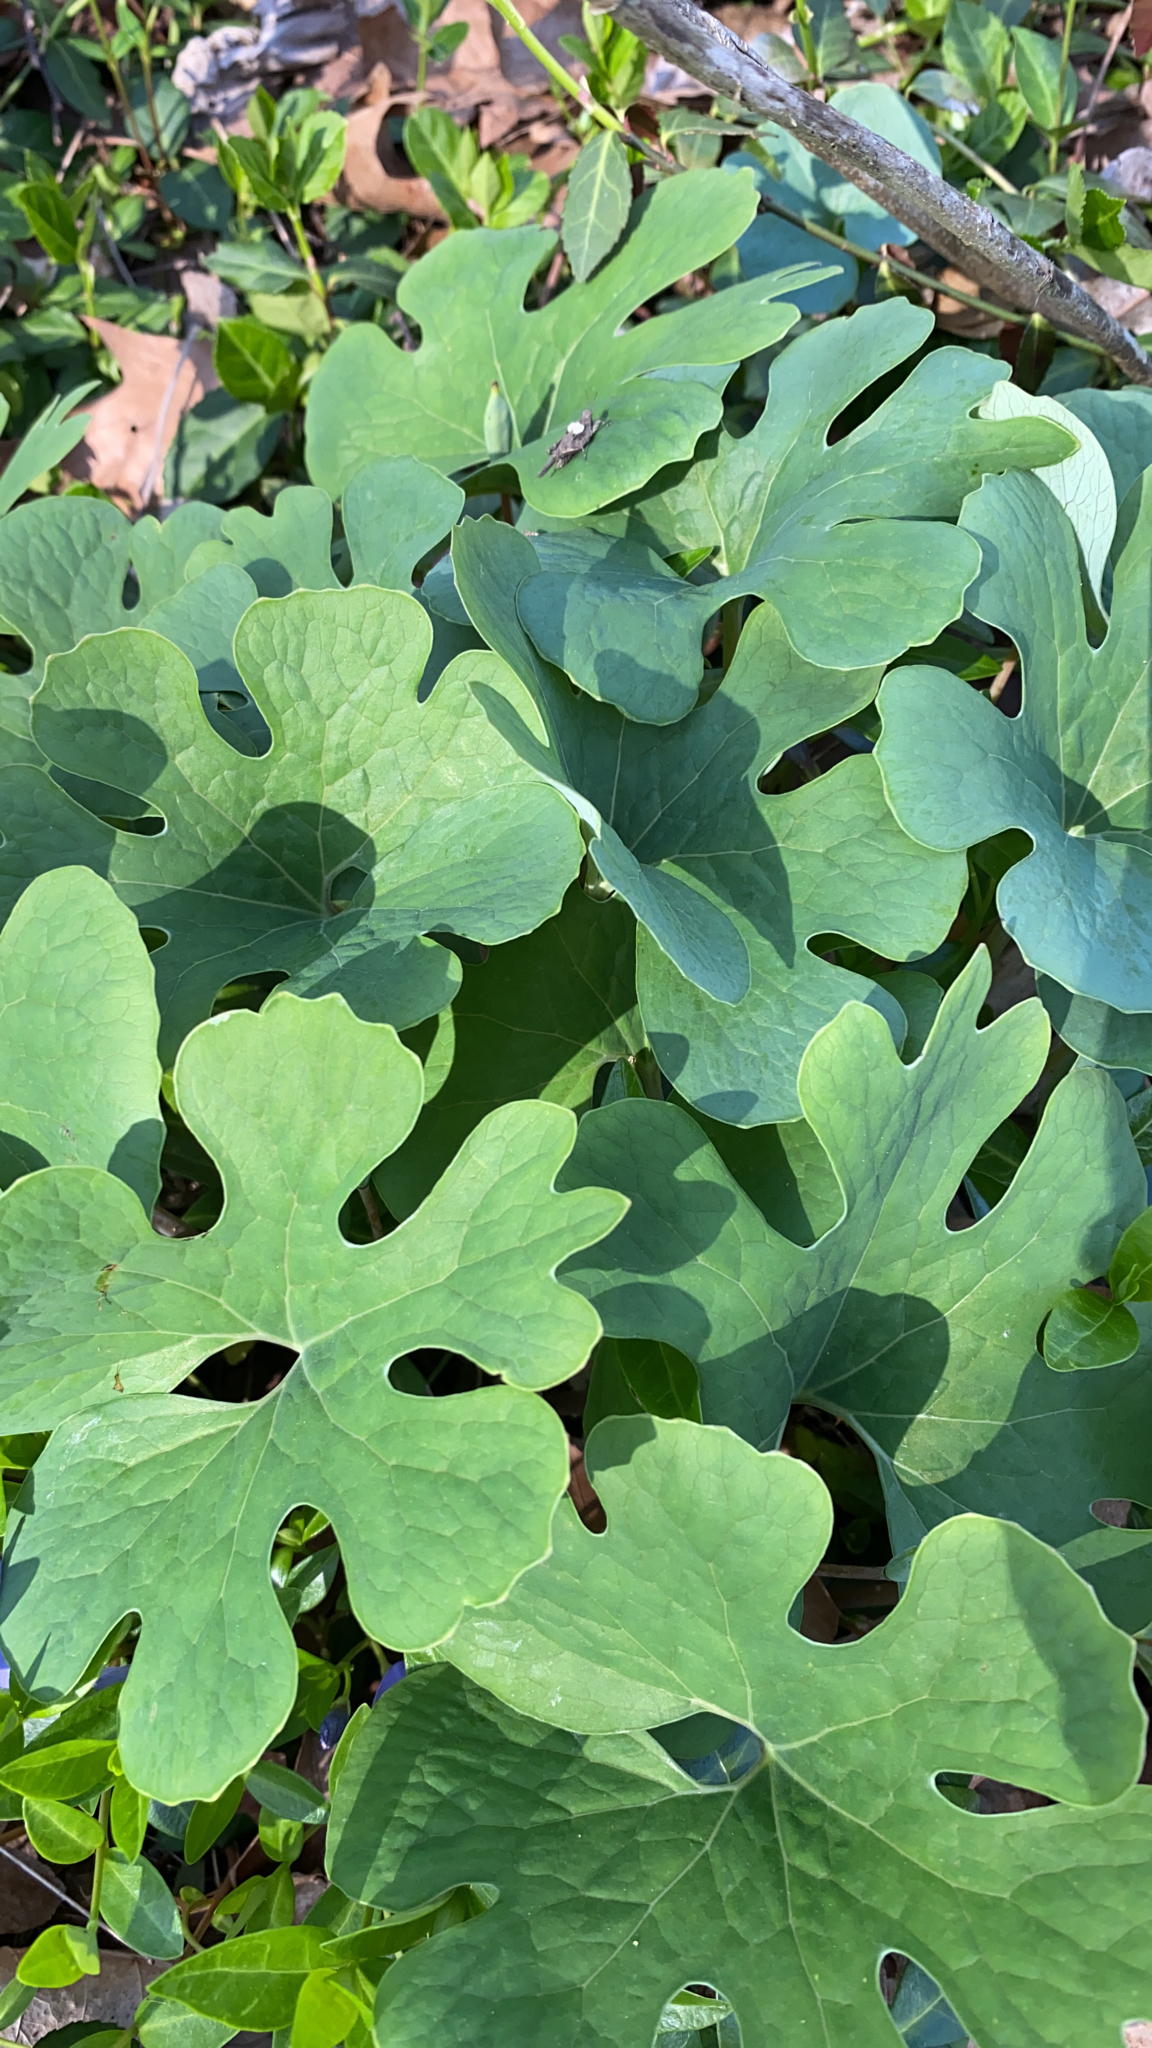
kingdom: Plantae
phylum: Tracheophyta
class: Magnoliopsida
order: Ranunculales
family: Papaveraceae
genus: Sanguinaria
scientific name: Sanguinaria canadensis
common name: Bloodroot
